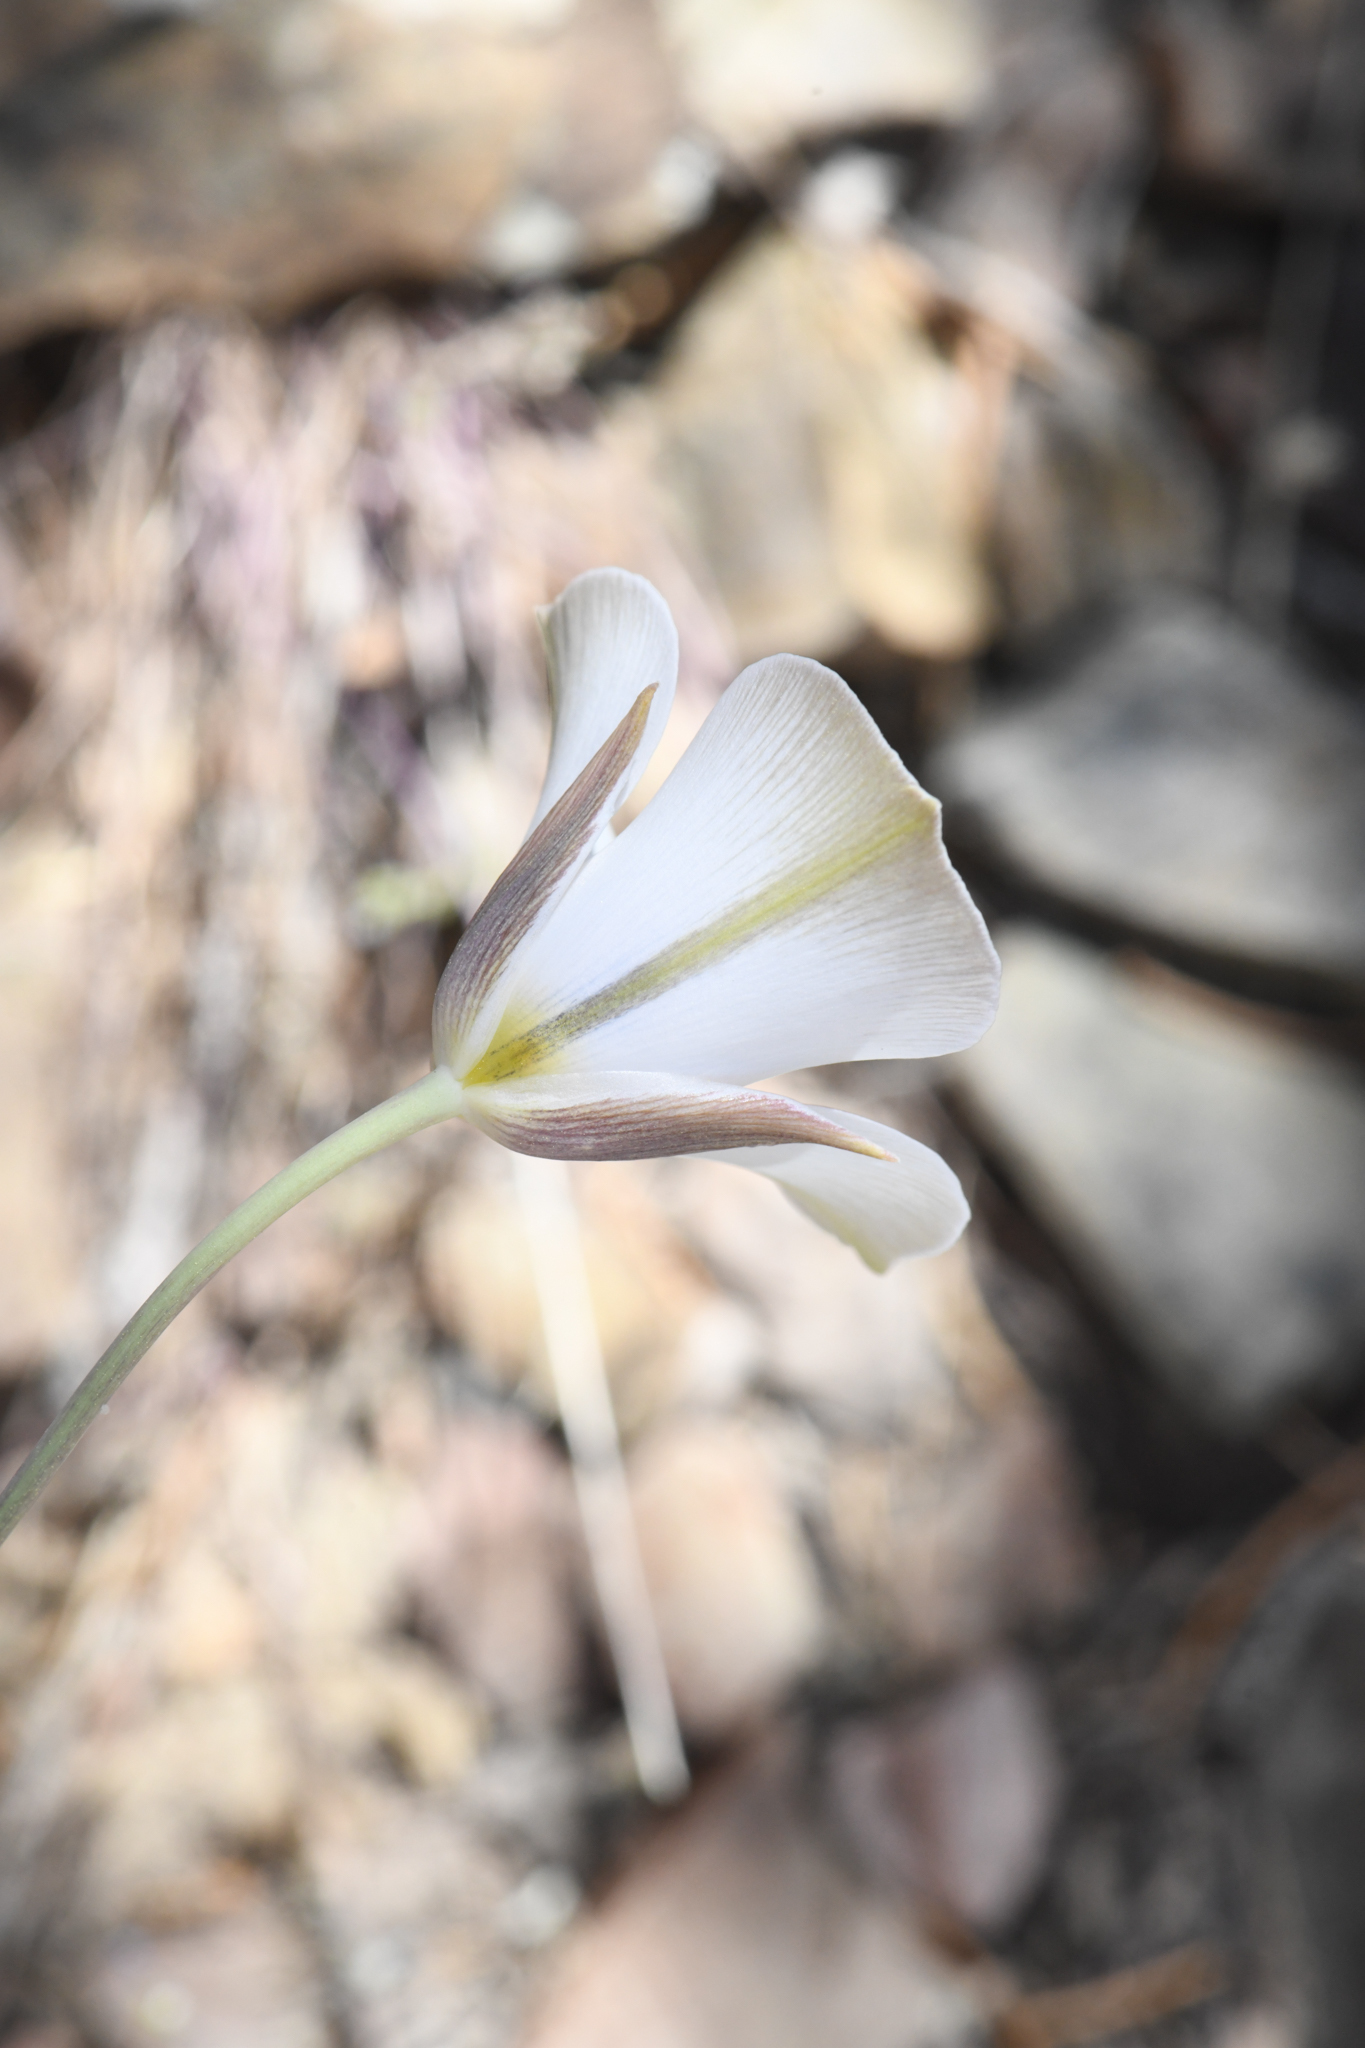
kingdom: Plantae
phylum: Tracheophyta
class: Liliopsida
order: Liliales
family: Liliaceae
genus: Calochortus
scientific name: Calochortus panamintensis
